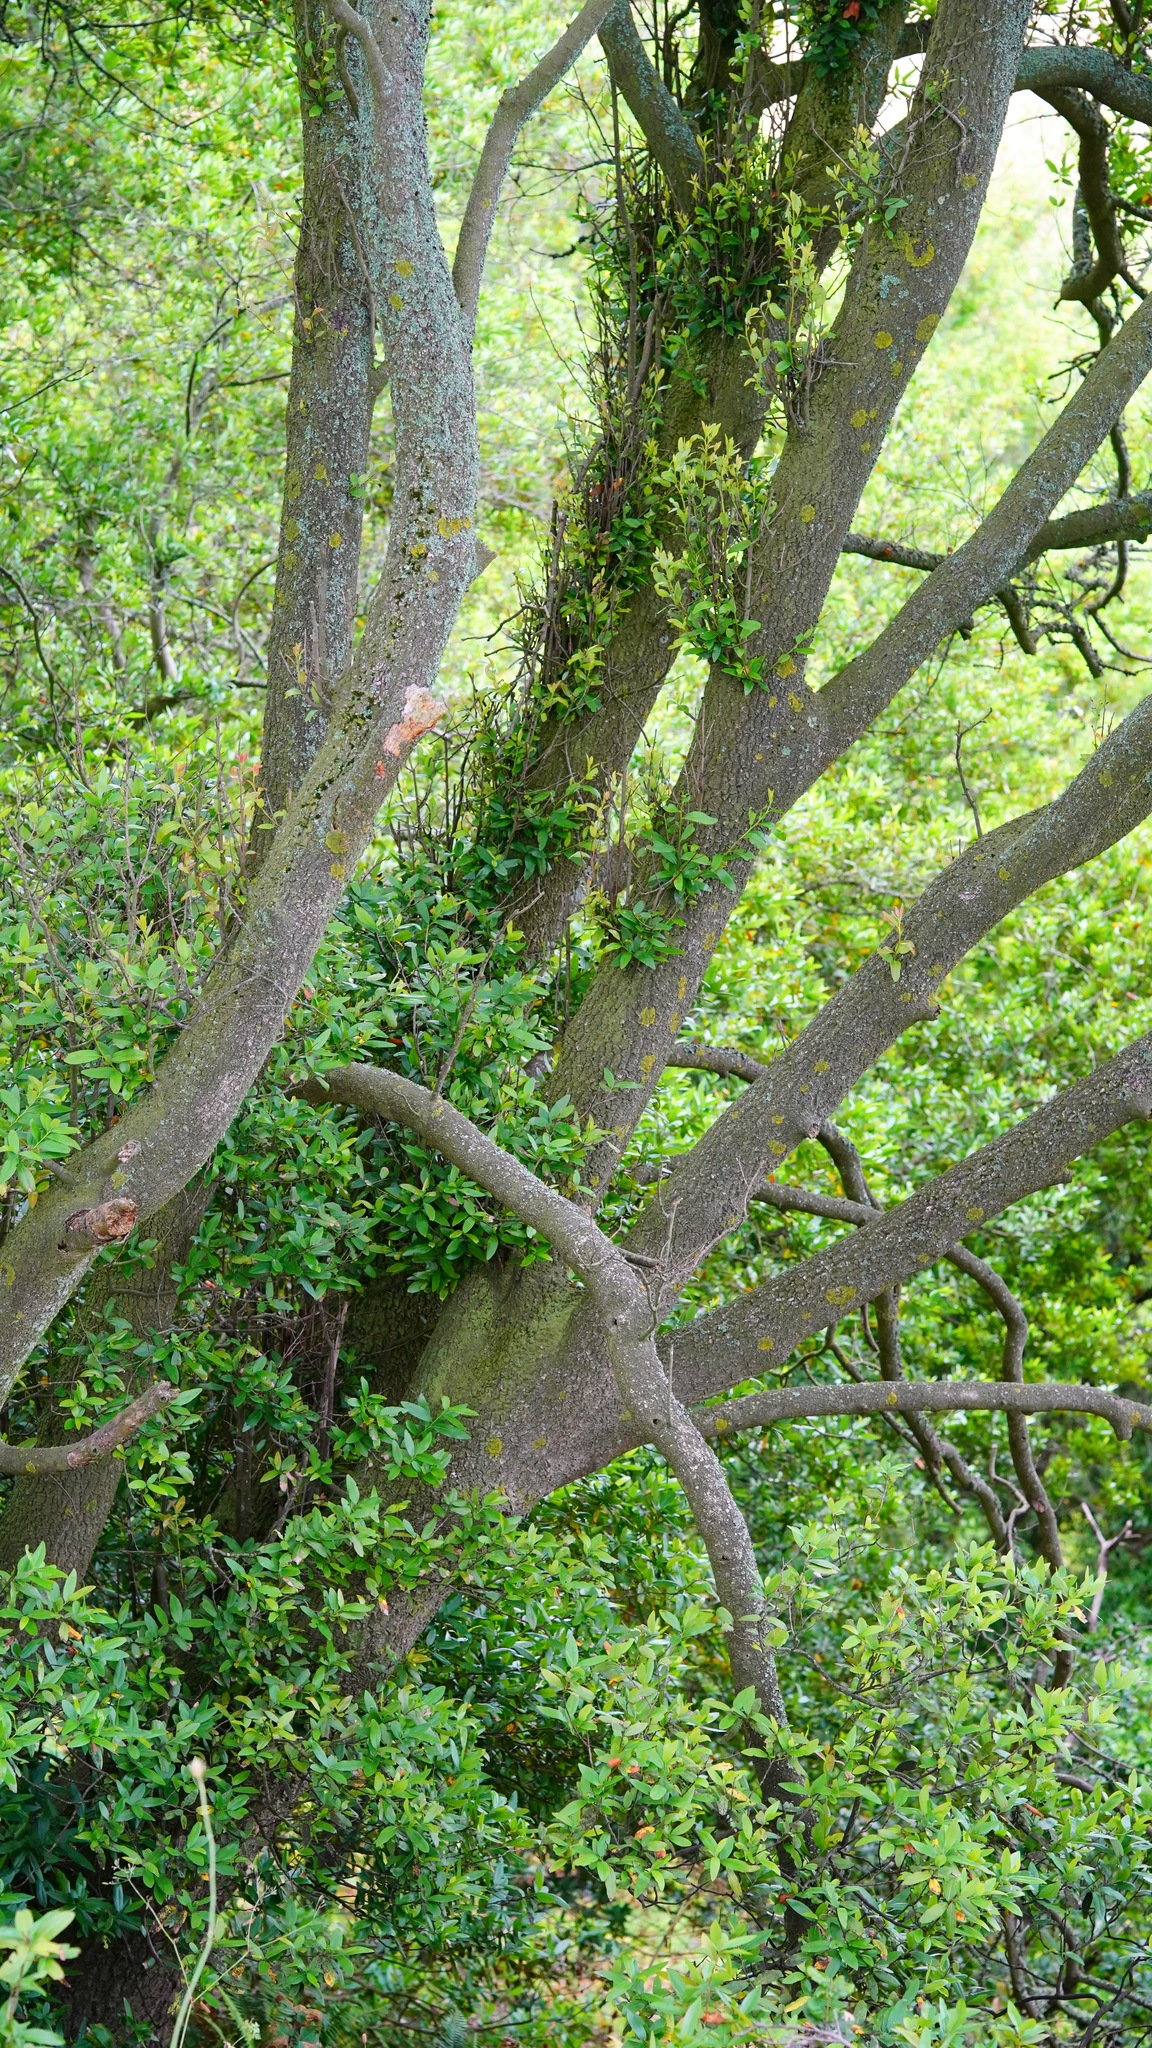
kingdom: Plantae
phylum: Tracheophyta
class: Magnoliopsida
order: Laurales
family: Lauraceae
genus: Umbellularia
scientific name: Umbellularia californica
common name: California bay
